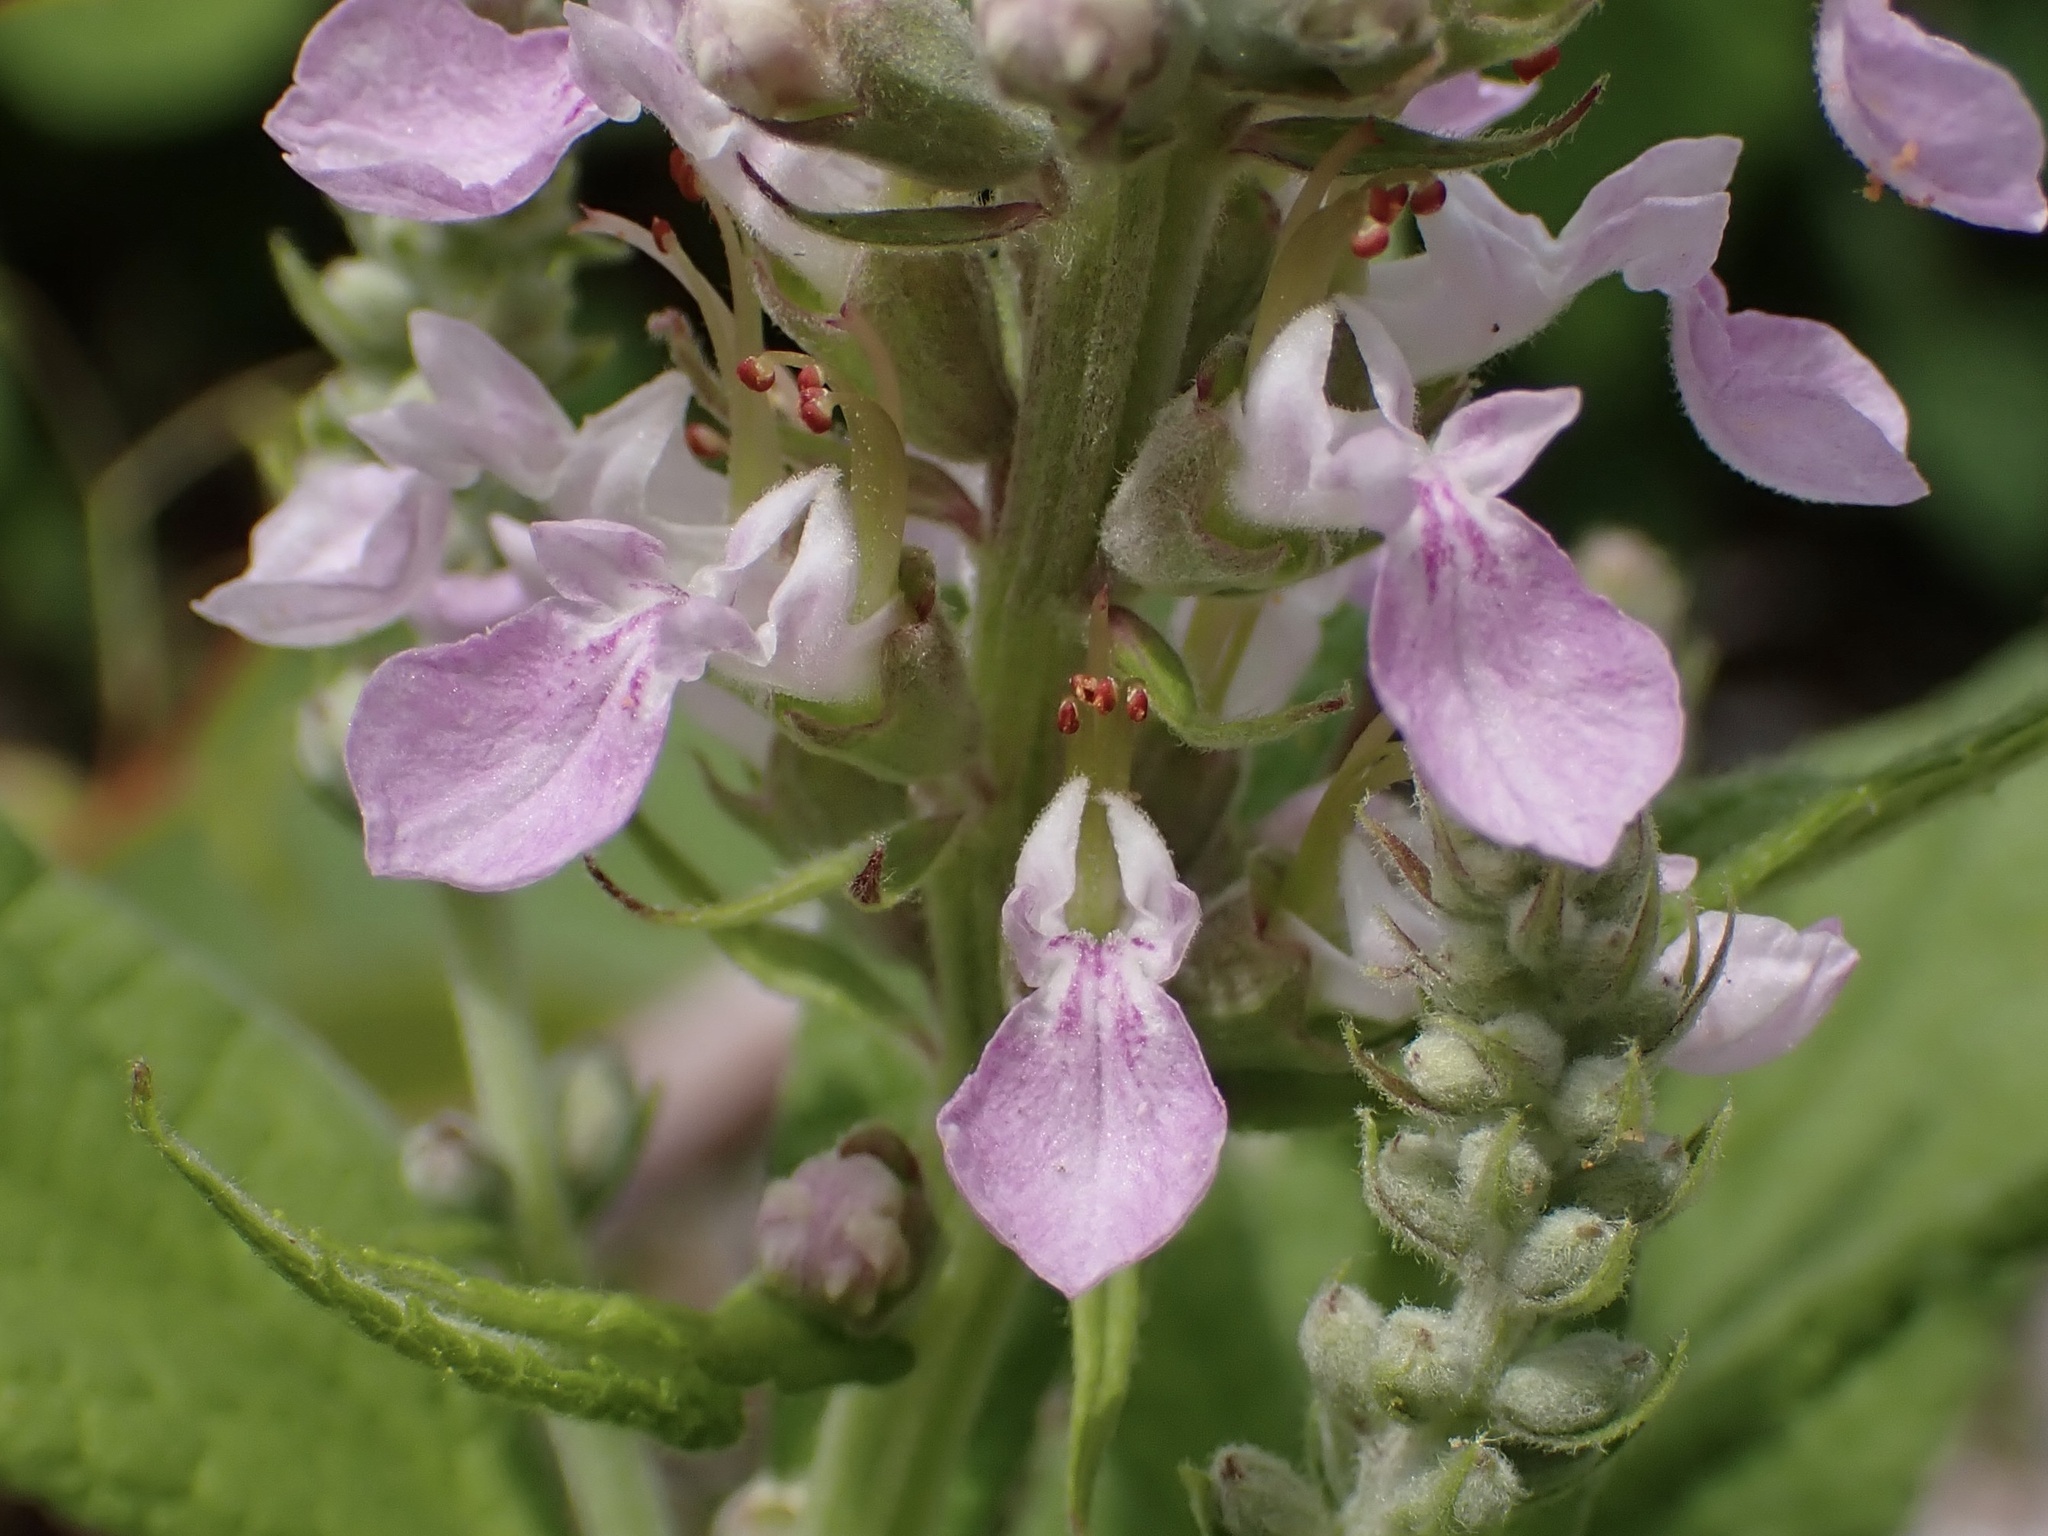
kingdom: Plantae
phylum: Tracheophyta
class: Magnoliopsida
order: Lamiales
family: Lamiaceae
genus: Teucrium
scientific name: Teucrium canadense
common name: American germander
